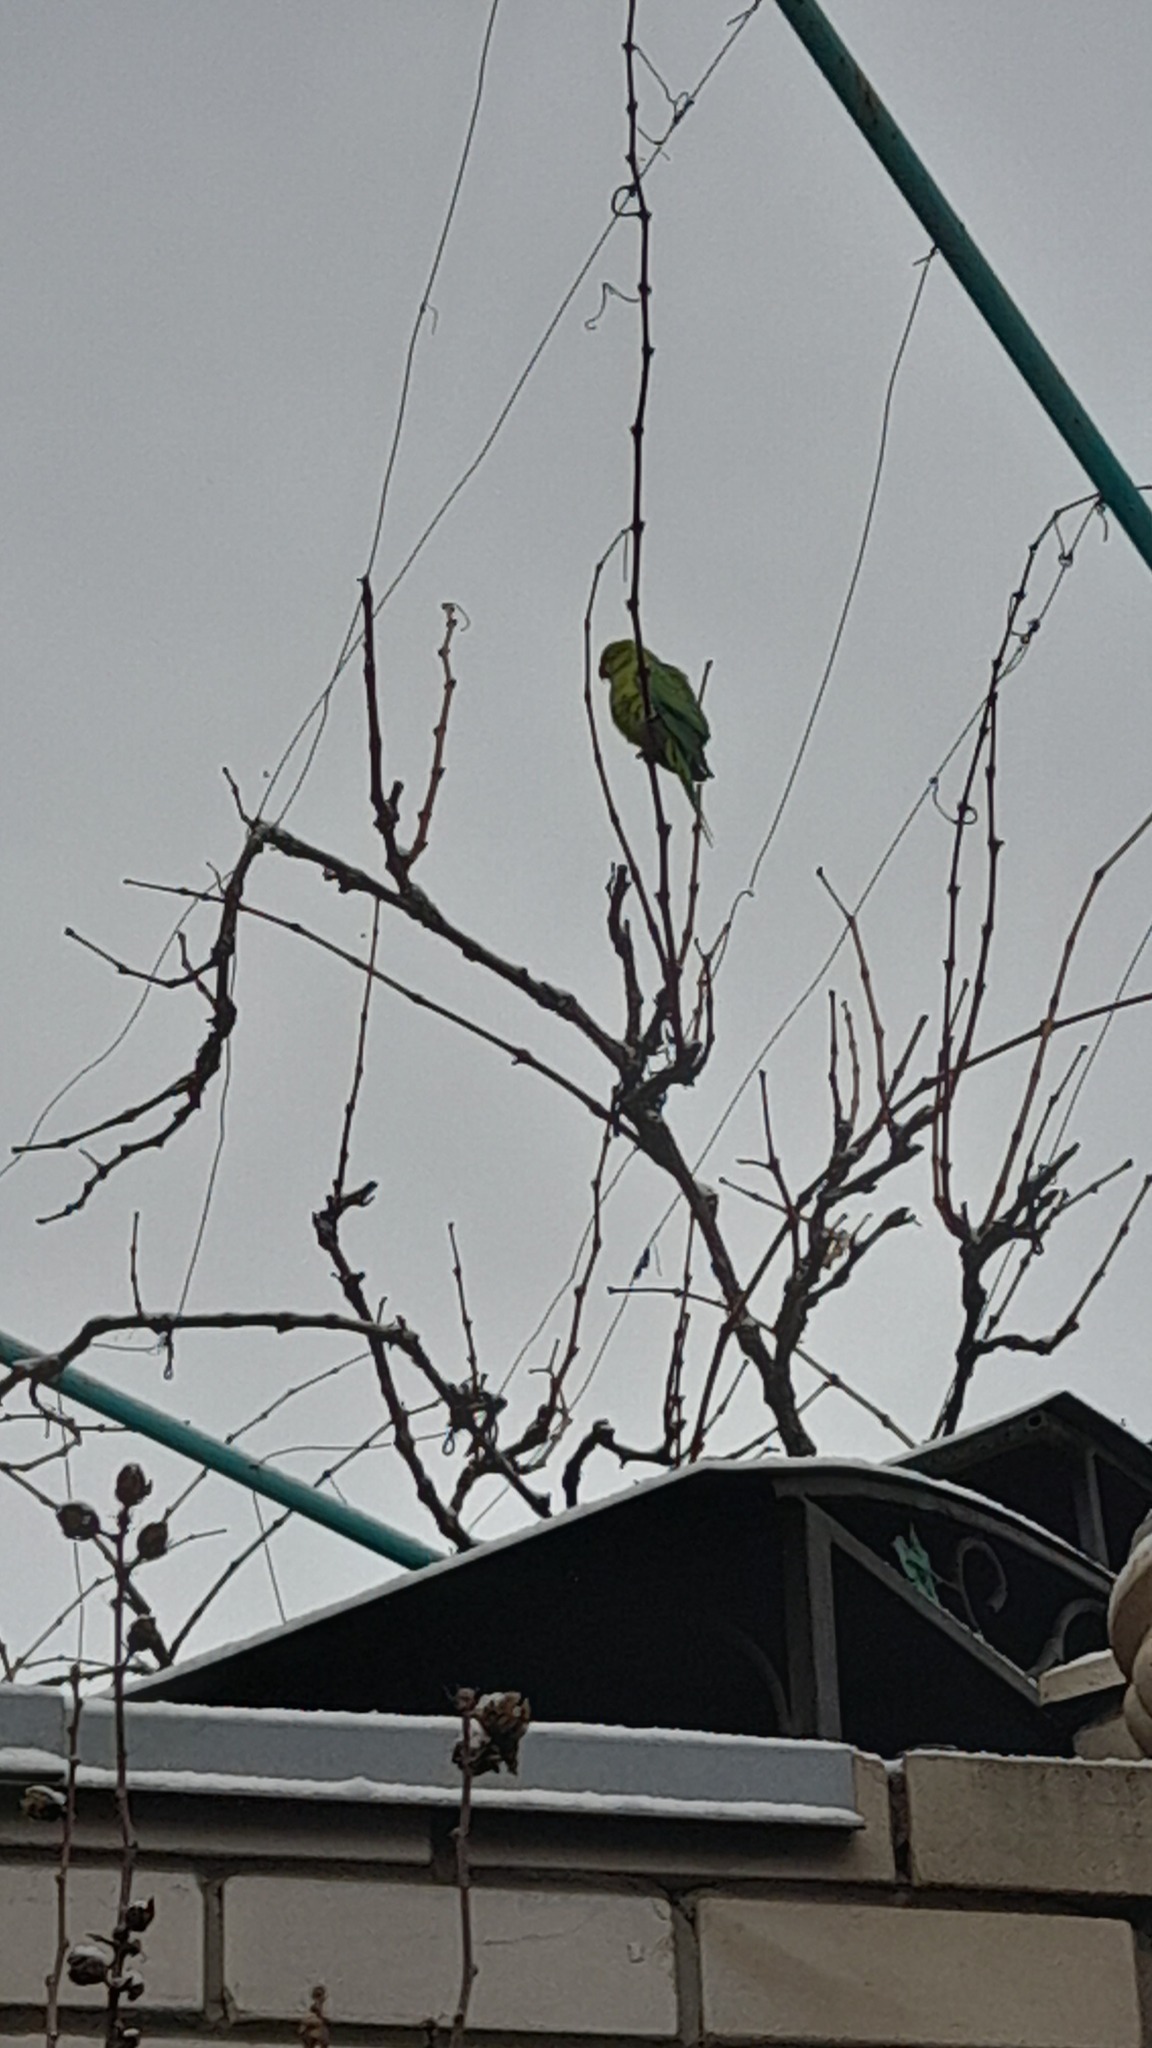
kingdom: Animalia
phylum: Chordata
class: Aves
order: Psittaciformes
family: Psittacidae
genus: Psittacula
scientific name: Psittacula krameri
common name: Rose-ringed parakeet
